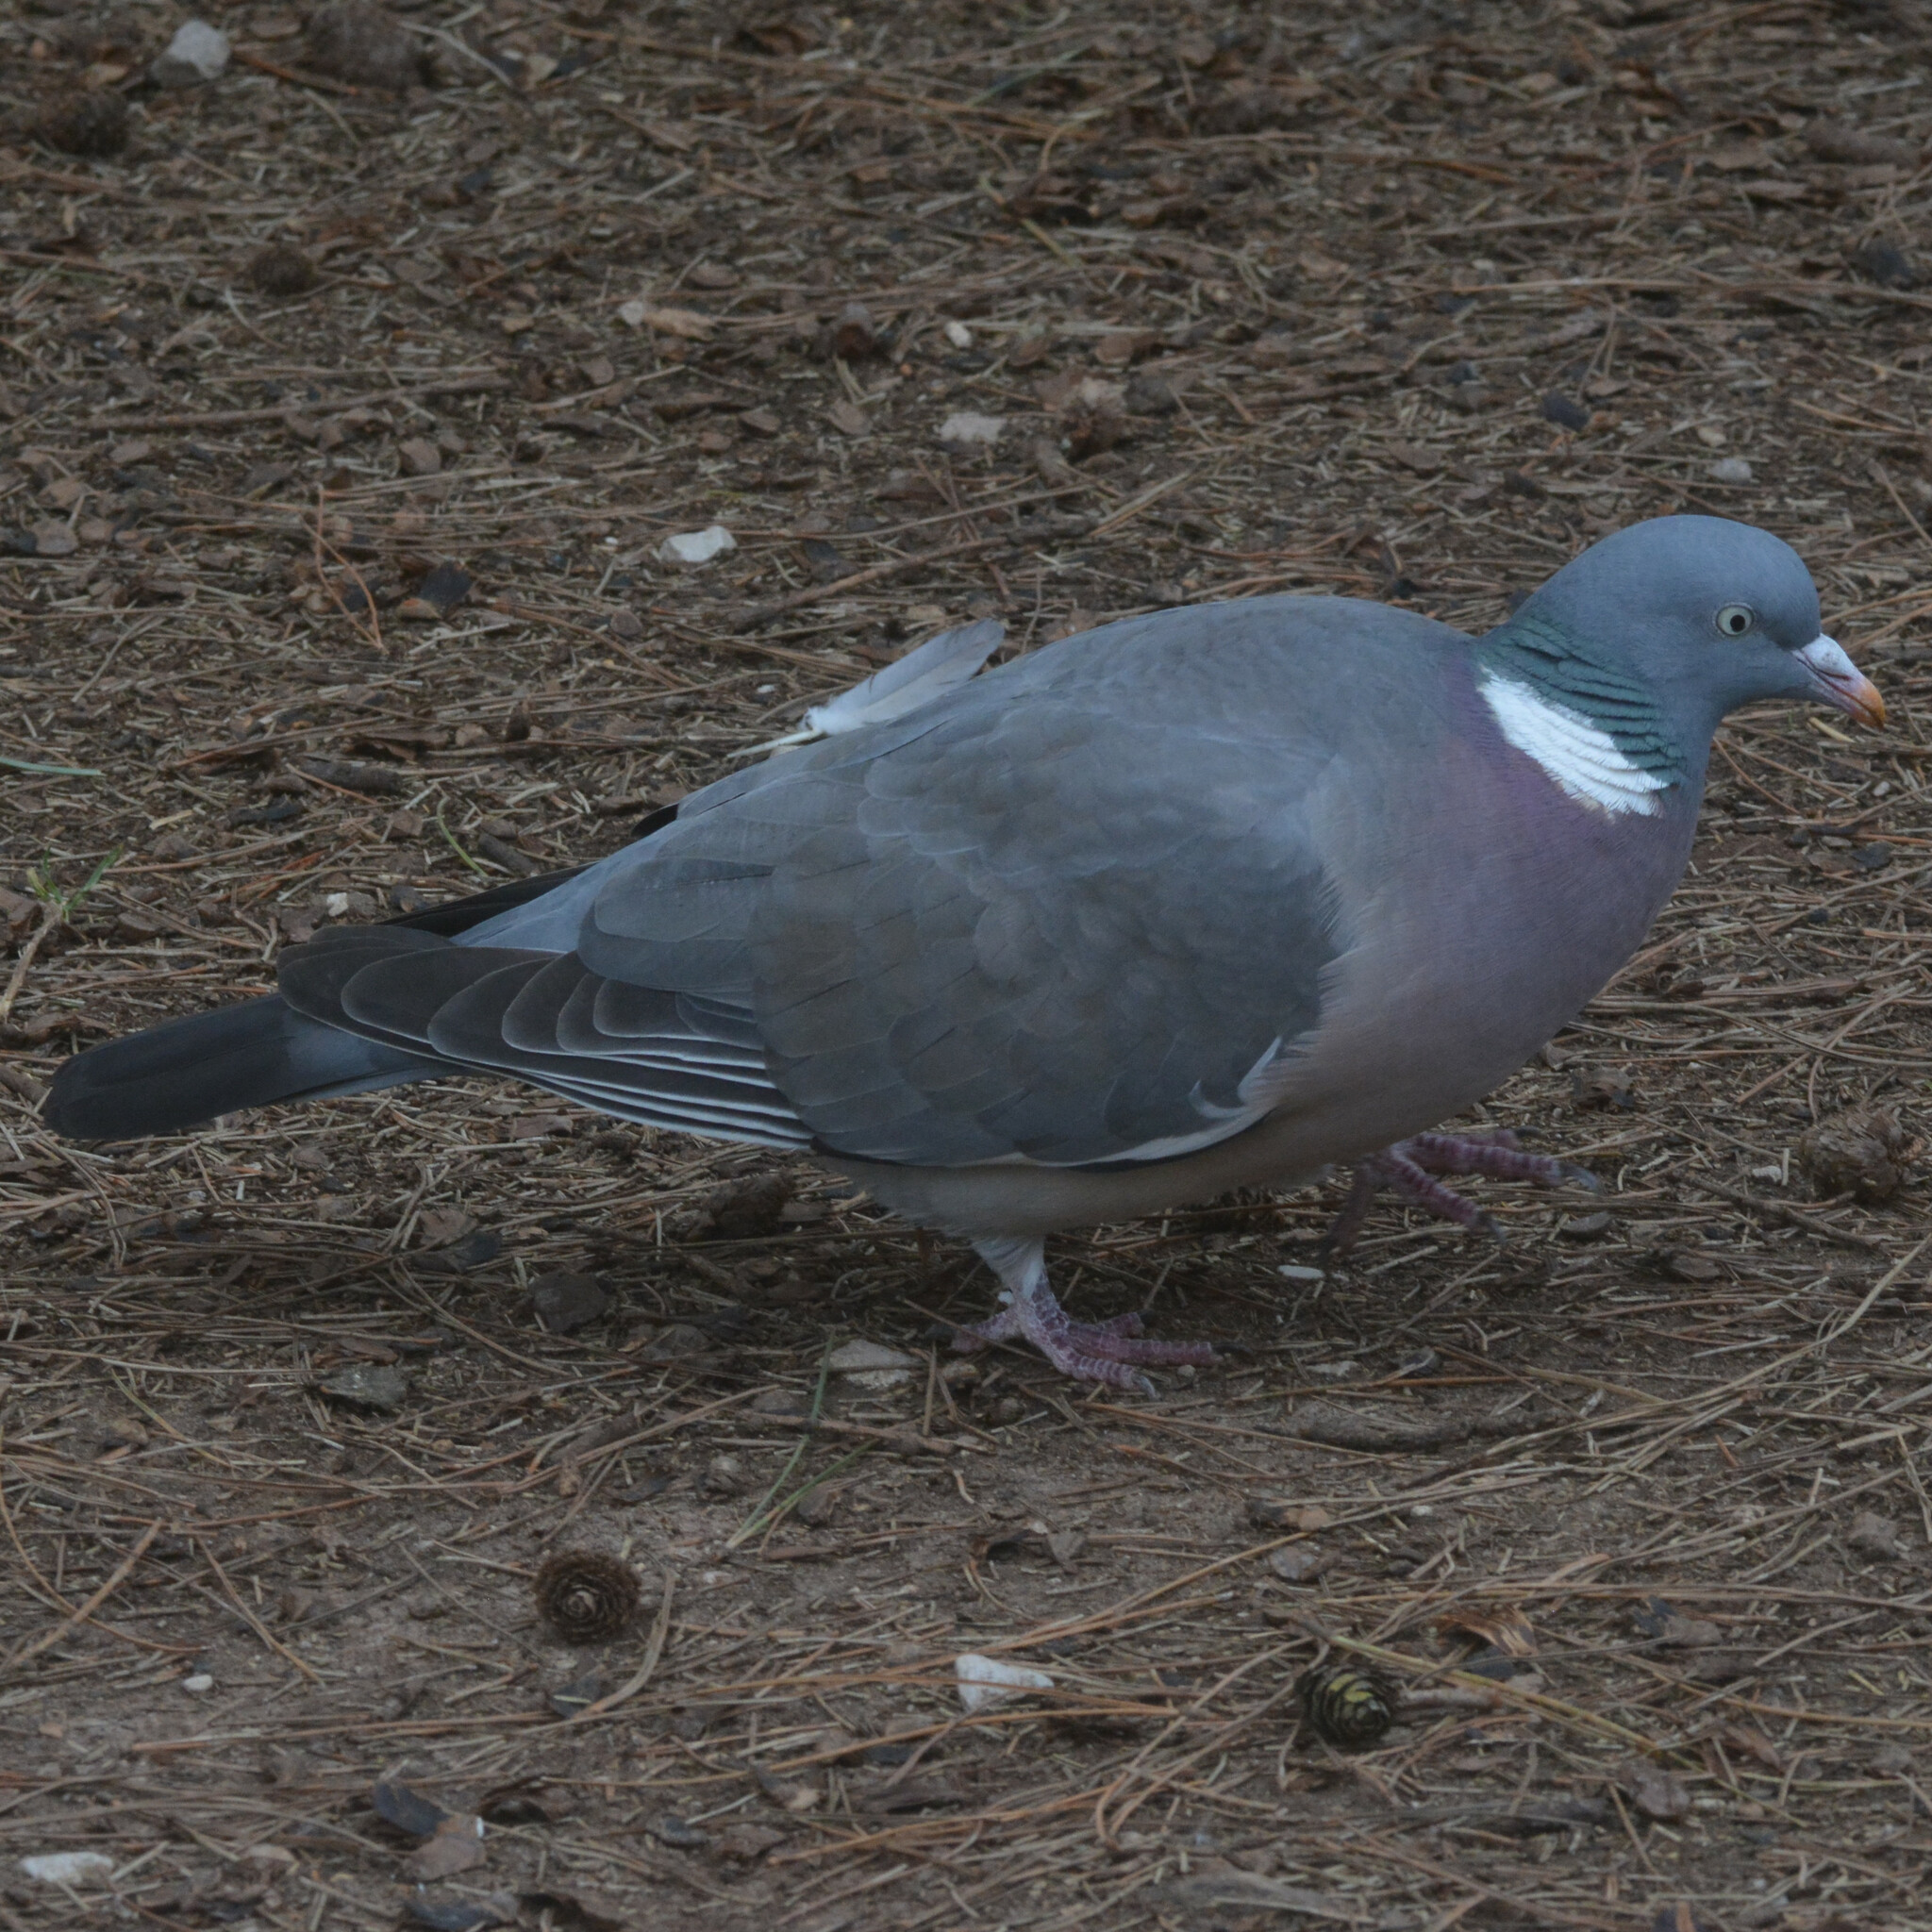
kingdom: Animalia
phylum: Chordata
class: Aves
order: Columbiformes
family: Columbidae
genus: Columba
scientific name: Columba palumbus
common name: Common wood pigeon
